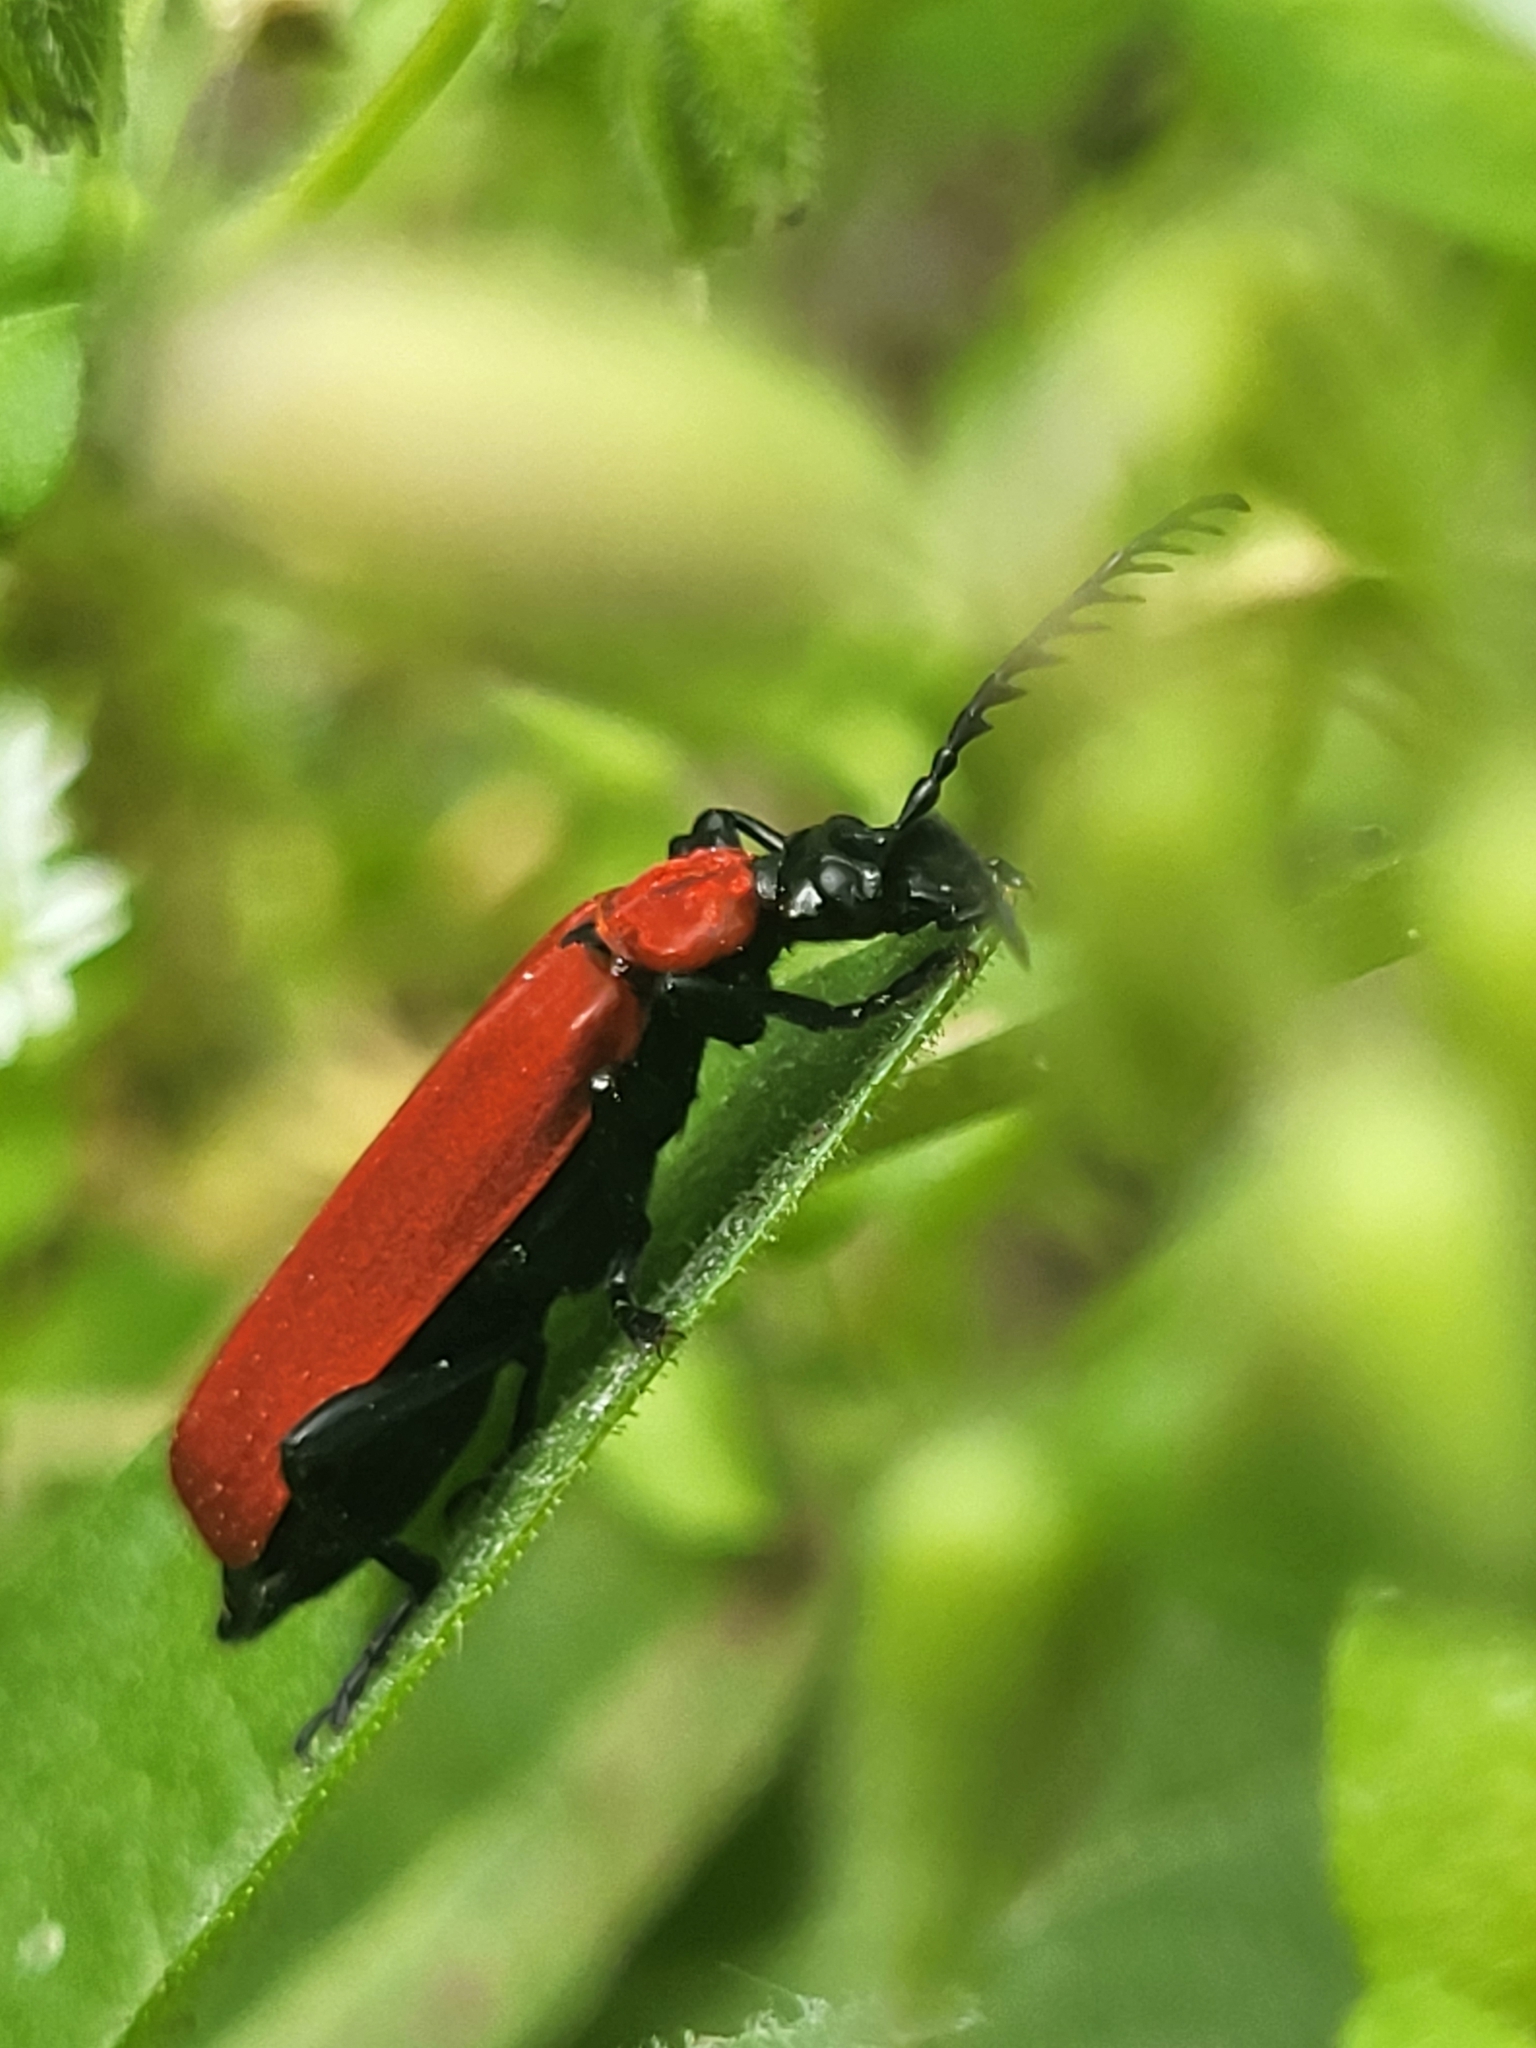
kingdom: Animalia
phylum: Arthropoda
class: Insecta
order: Coleoptera
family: Pyrochroidae
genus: Pyrochroa
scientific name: Pyrochroa coccinea
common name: Black-headed cardinal beetle
